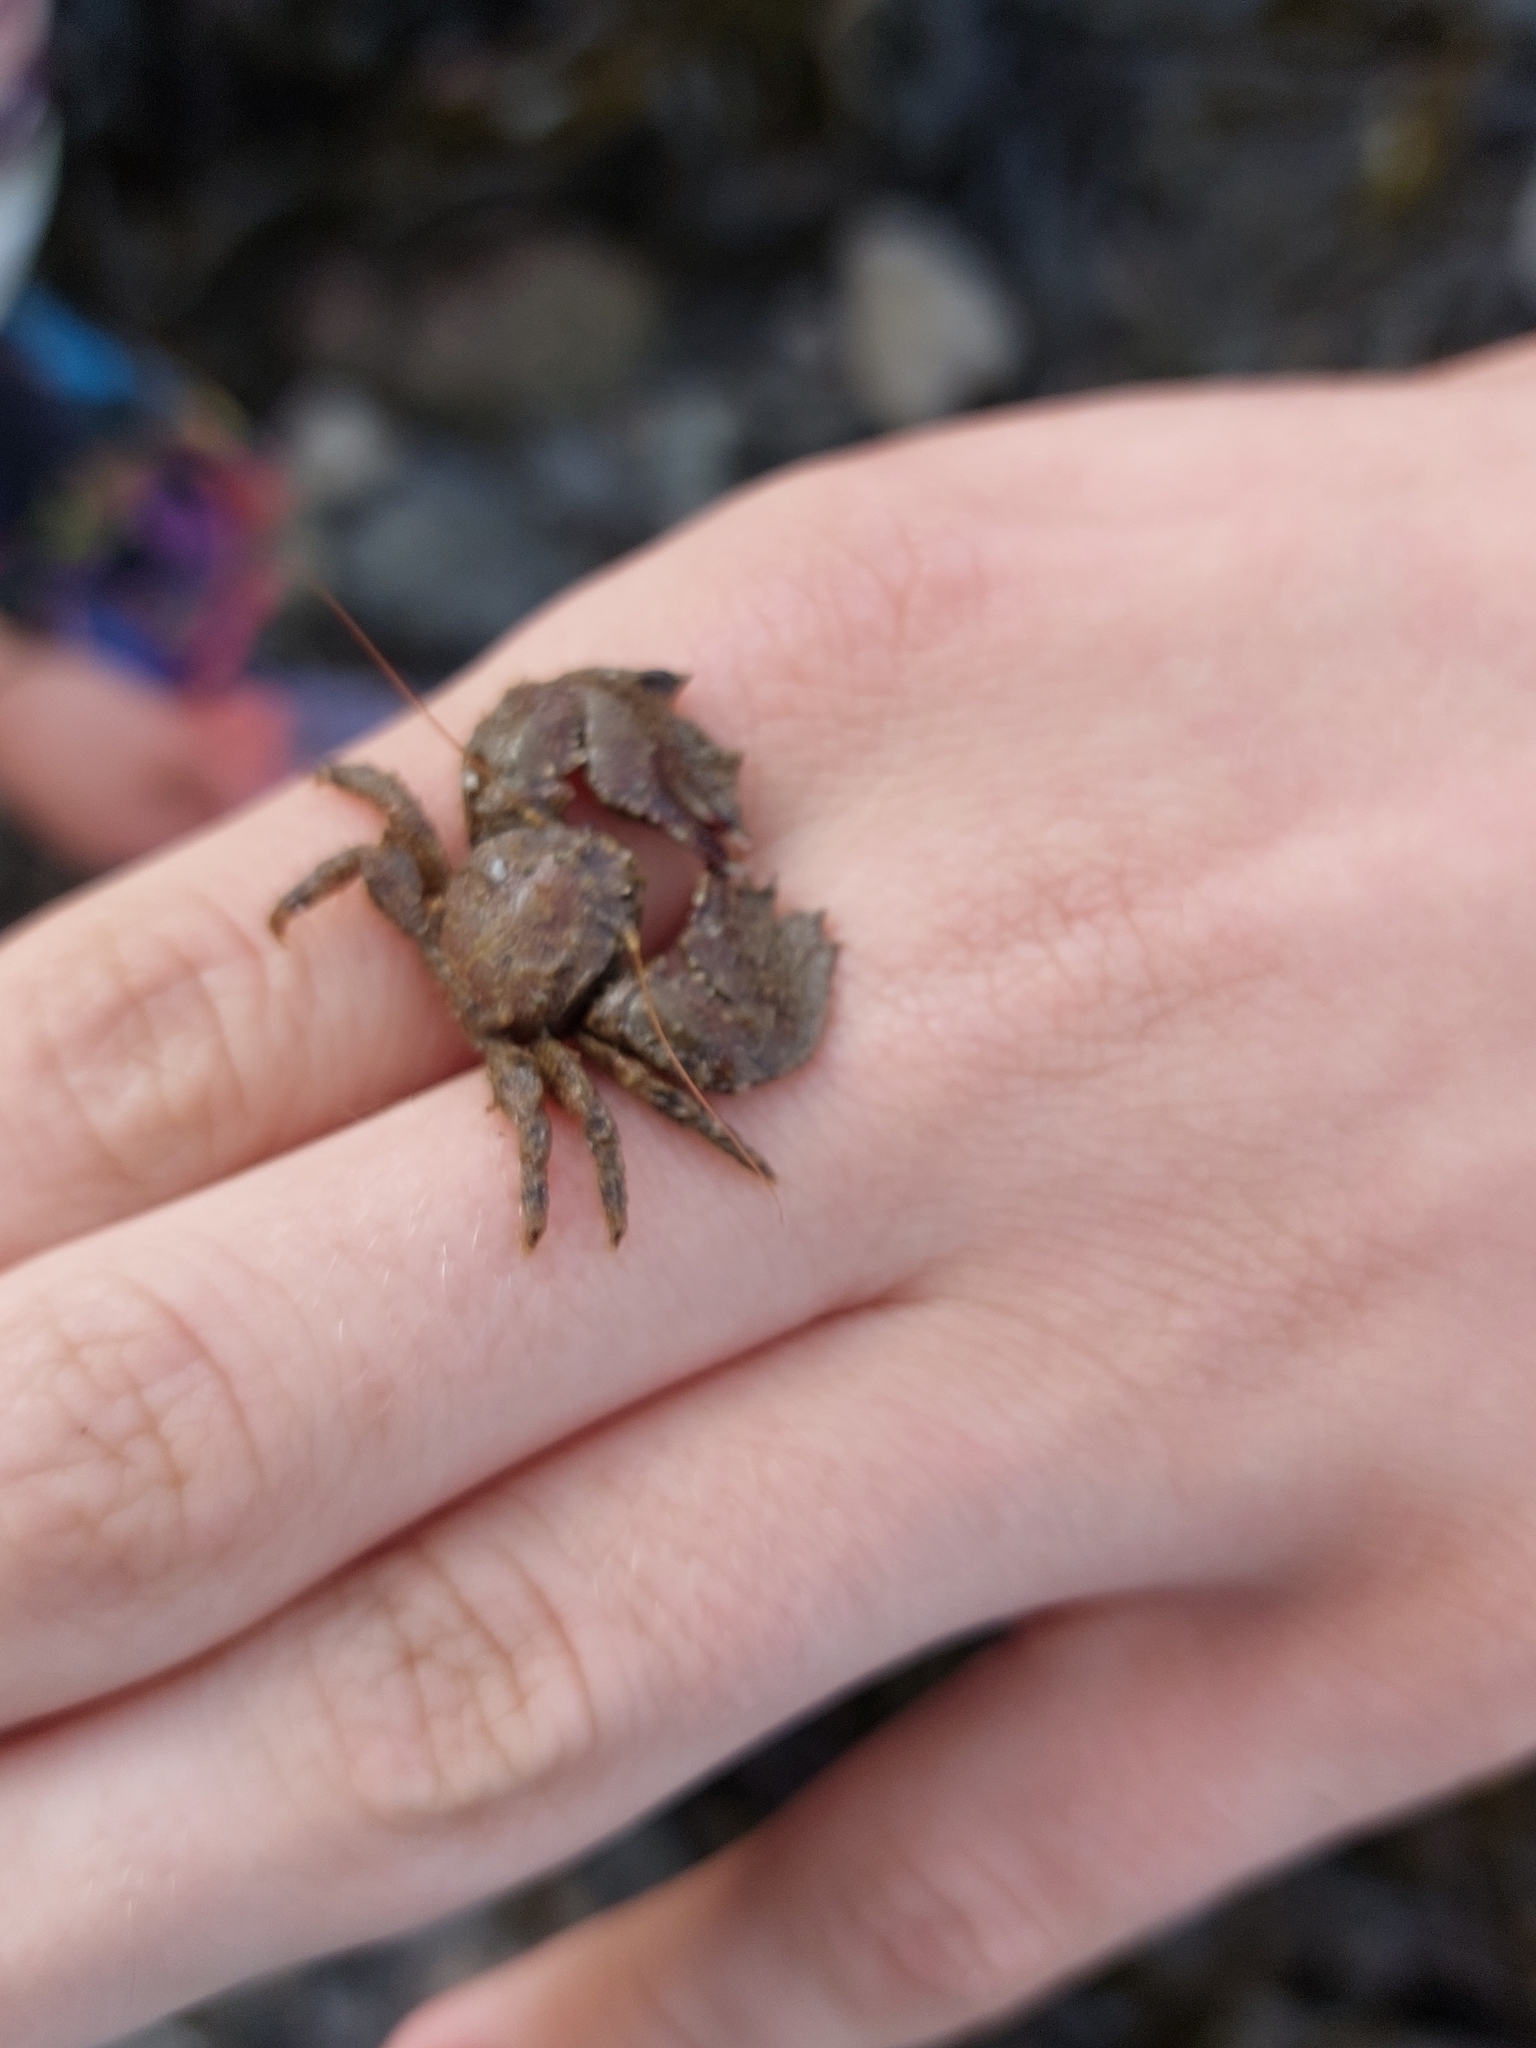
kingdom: Animalia
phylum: Arthropoda
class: Malacostraca
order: Decapoda
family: Porcellanidae
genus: Porcellana
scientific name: Porcellana platycheles
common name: Porcelain crab
